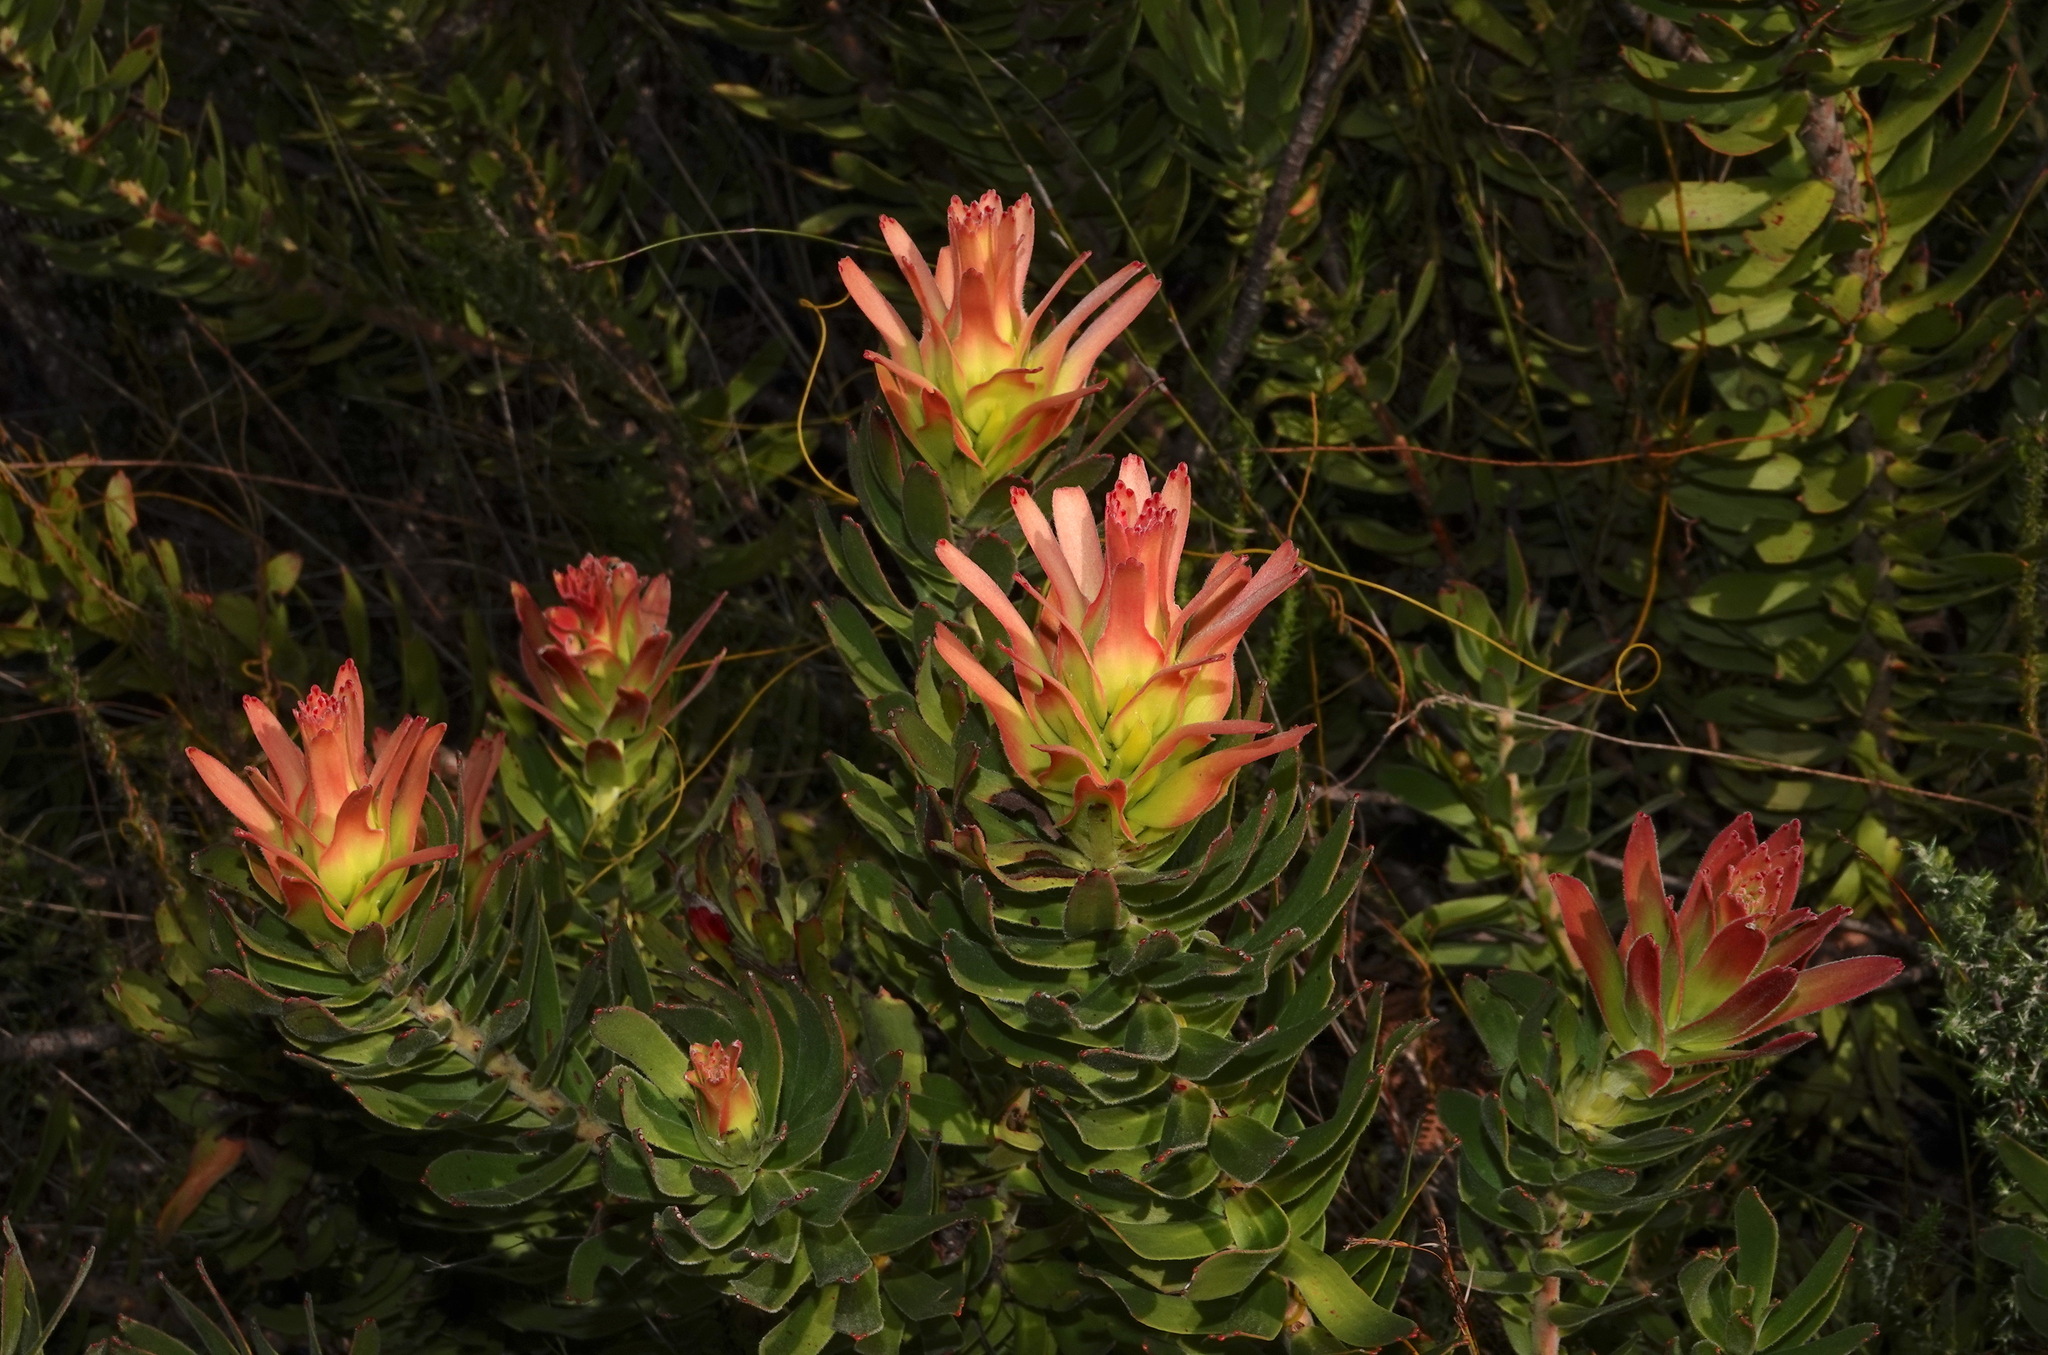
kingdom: Plantae
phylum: Tracheophyta
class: Magnoliopsida
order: Proteales
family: Proteaceae
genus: Mimetes
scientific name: Mimetes cucullatus
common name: Common pagoda
